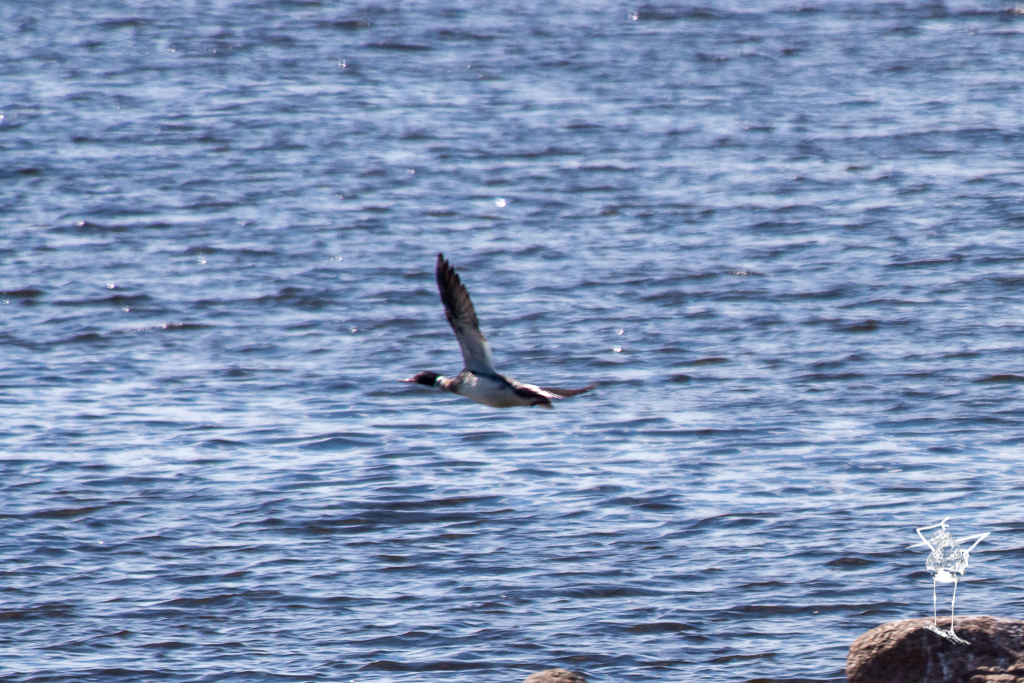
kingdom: Animalia
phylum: Chordata
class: Aves
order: Anseriformes
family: Anatidae
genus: Mergus
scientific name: Mergus serrator
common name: Red-breasted merganser
